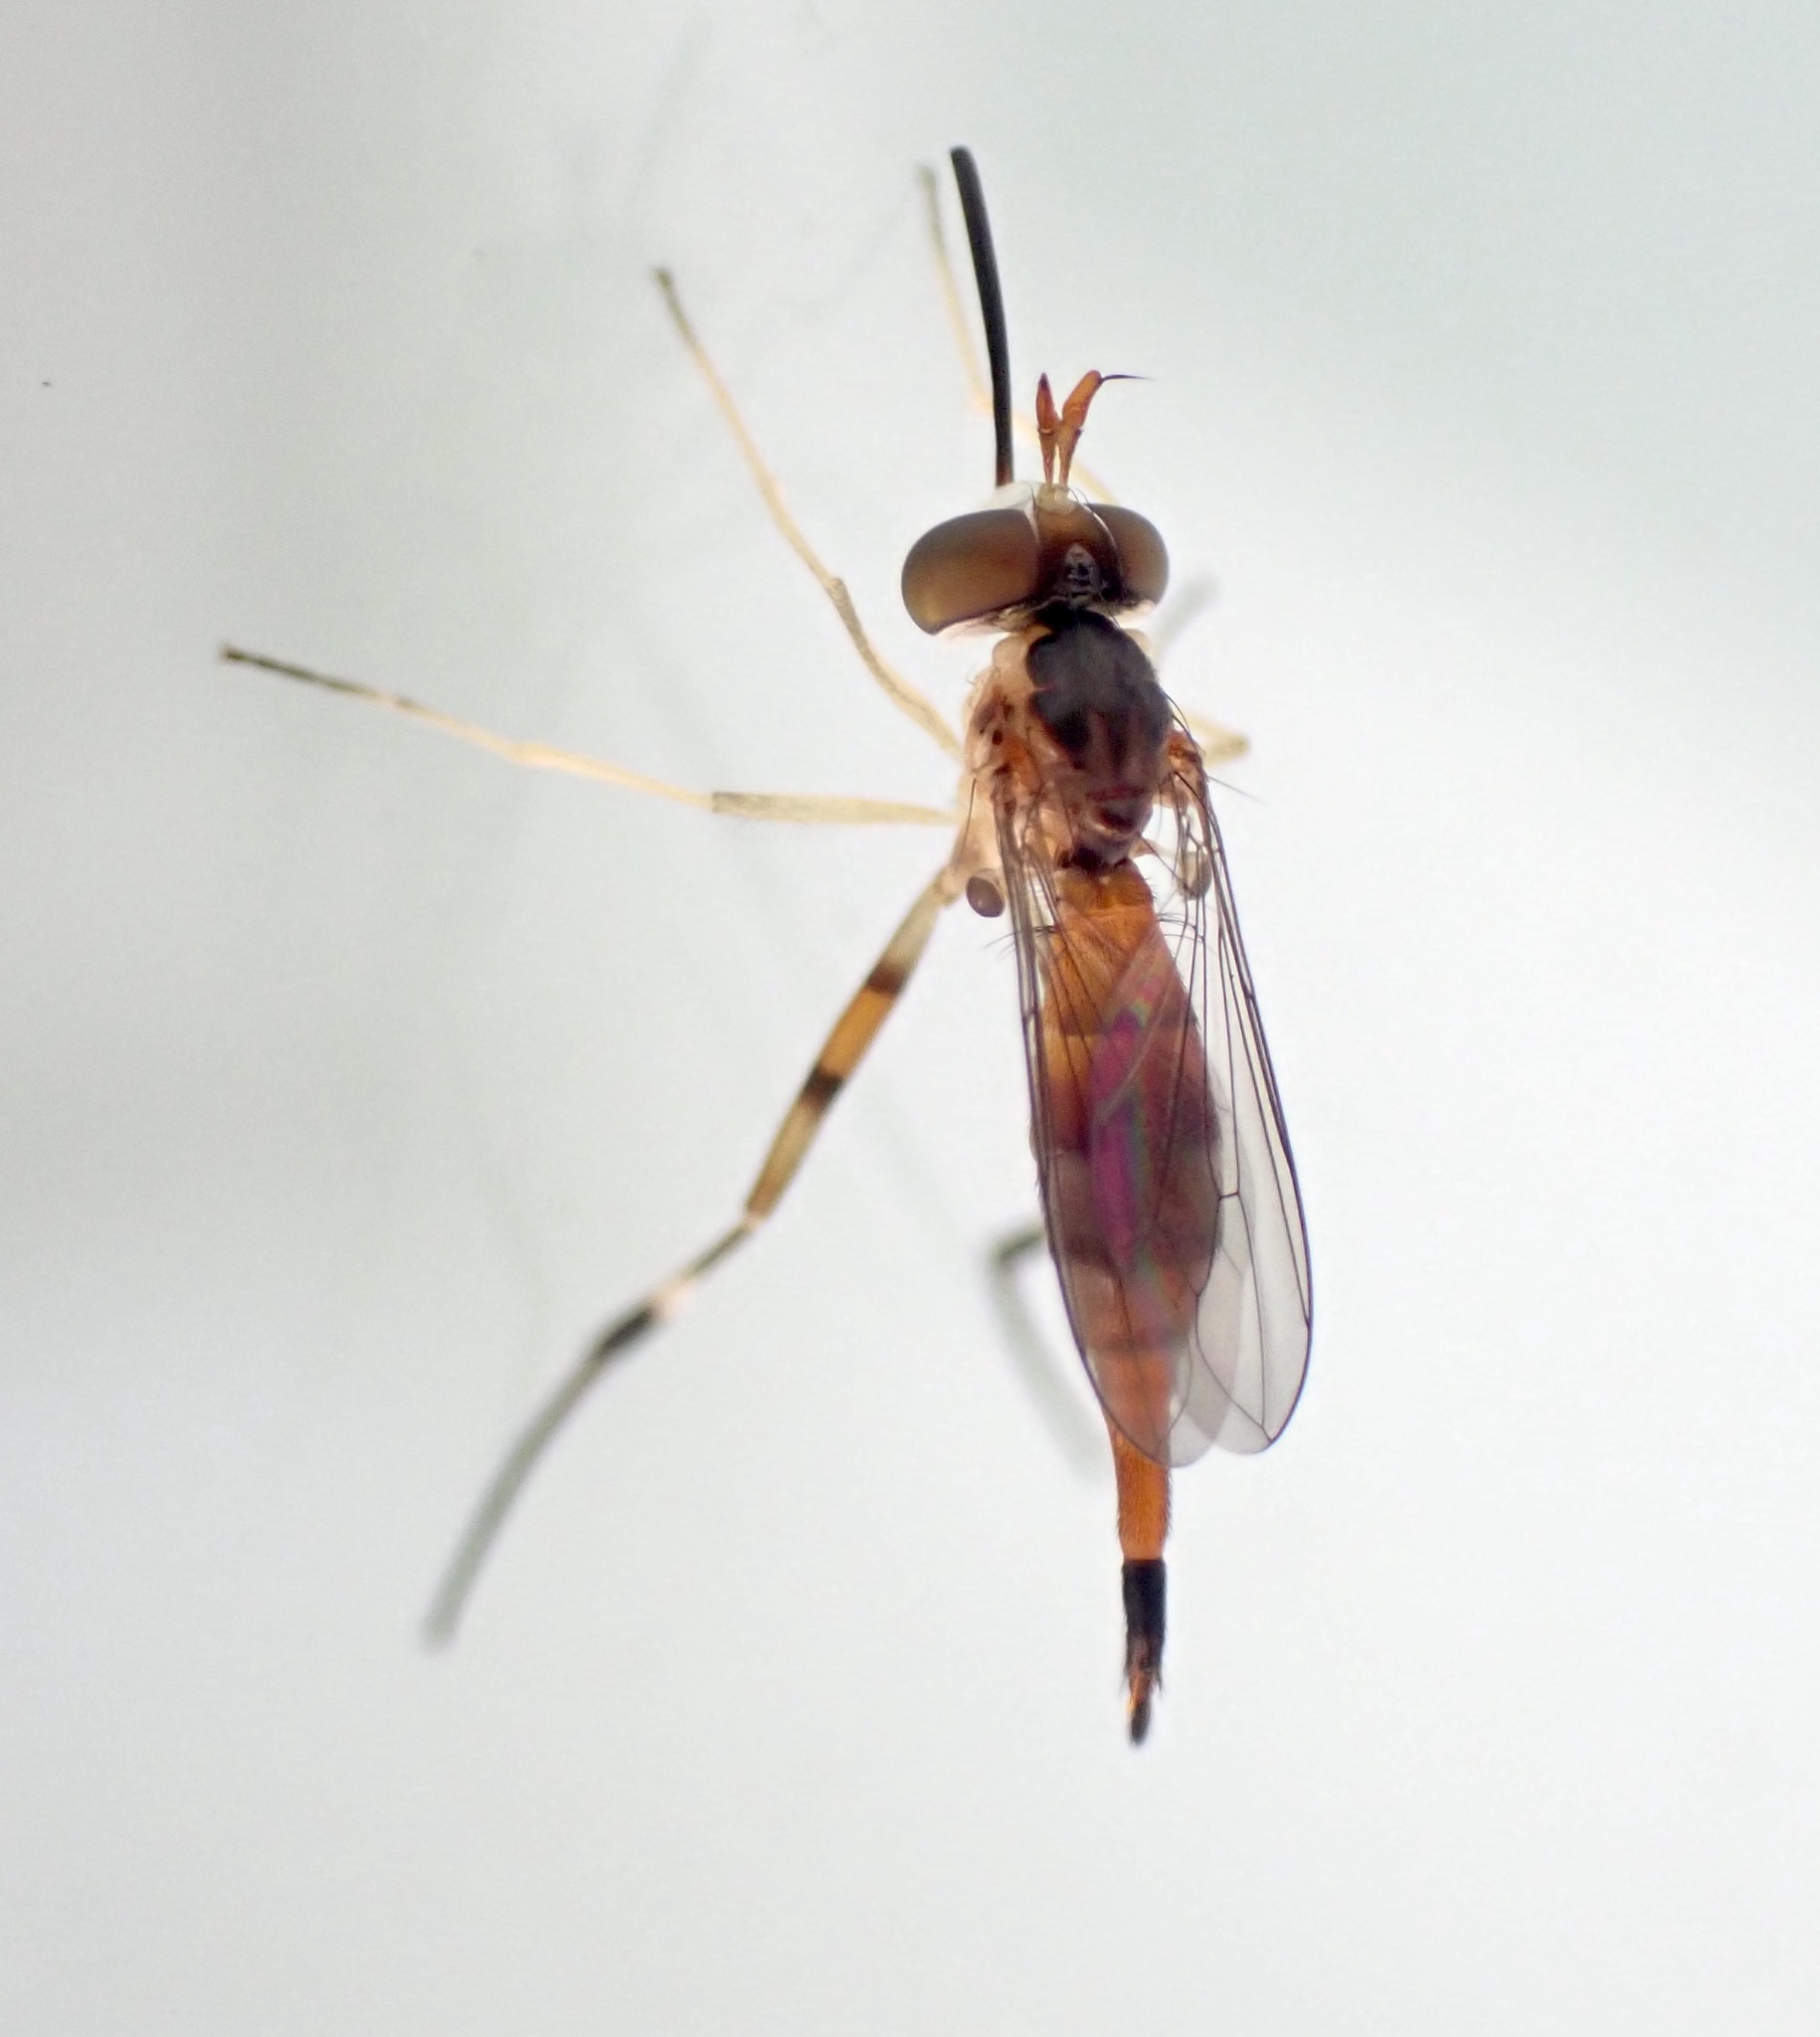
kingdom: Animalia
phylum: Arthropoda
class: Insecta
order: Diptera
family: Conopidae
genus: Stylogaster
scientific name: Stylogaster biannulata
